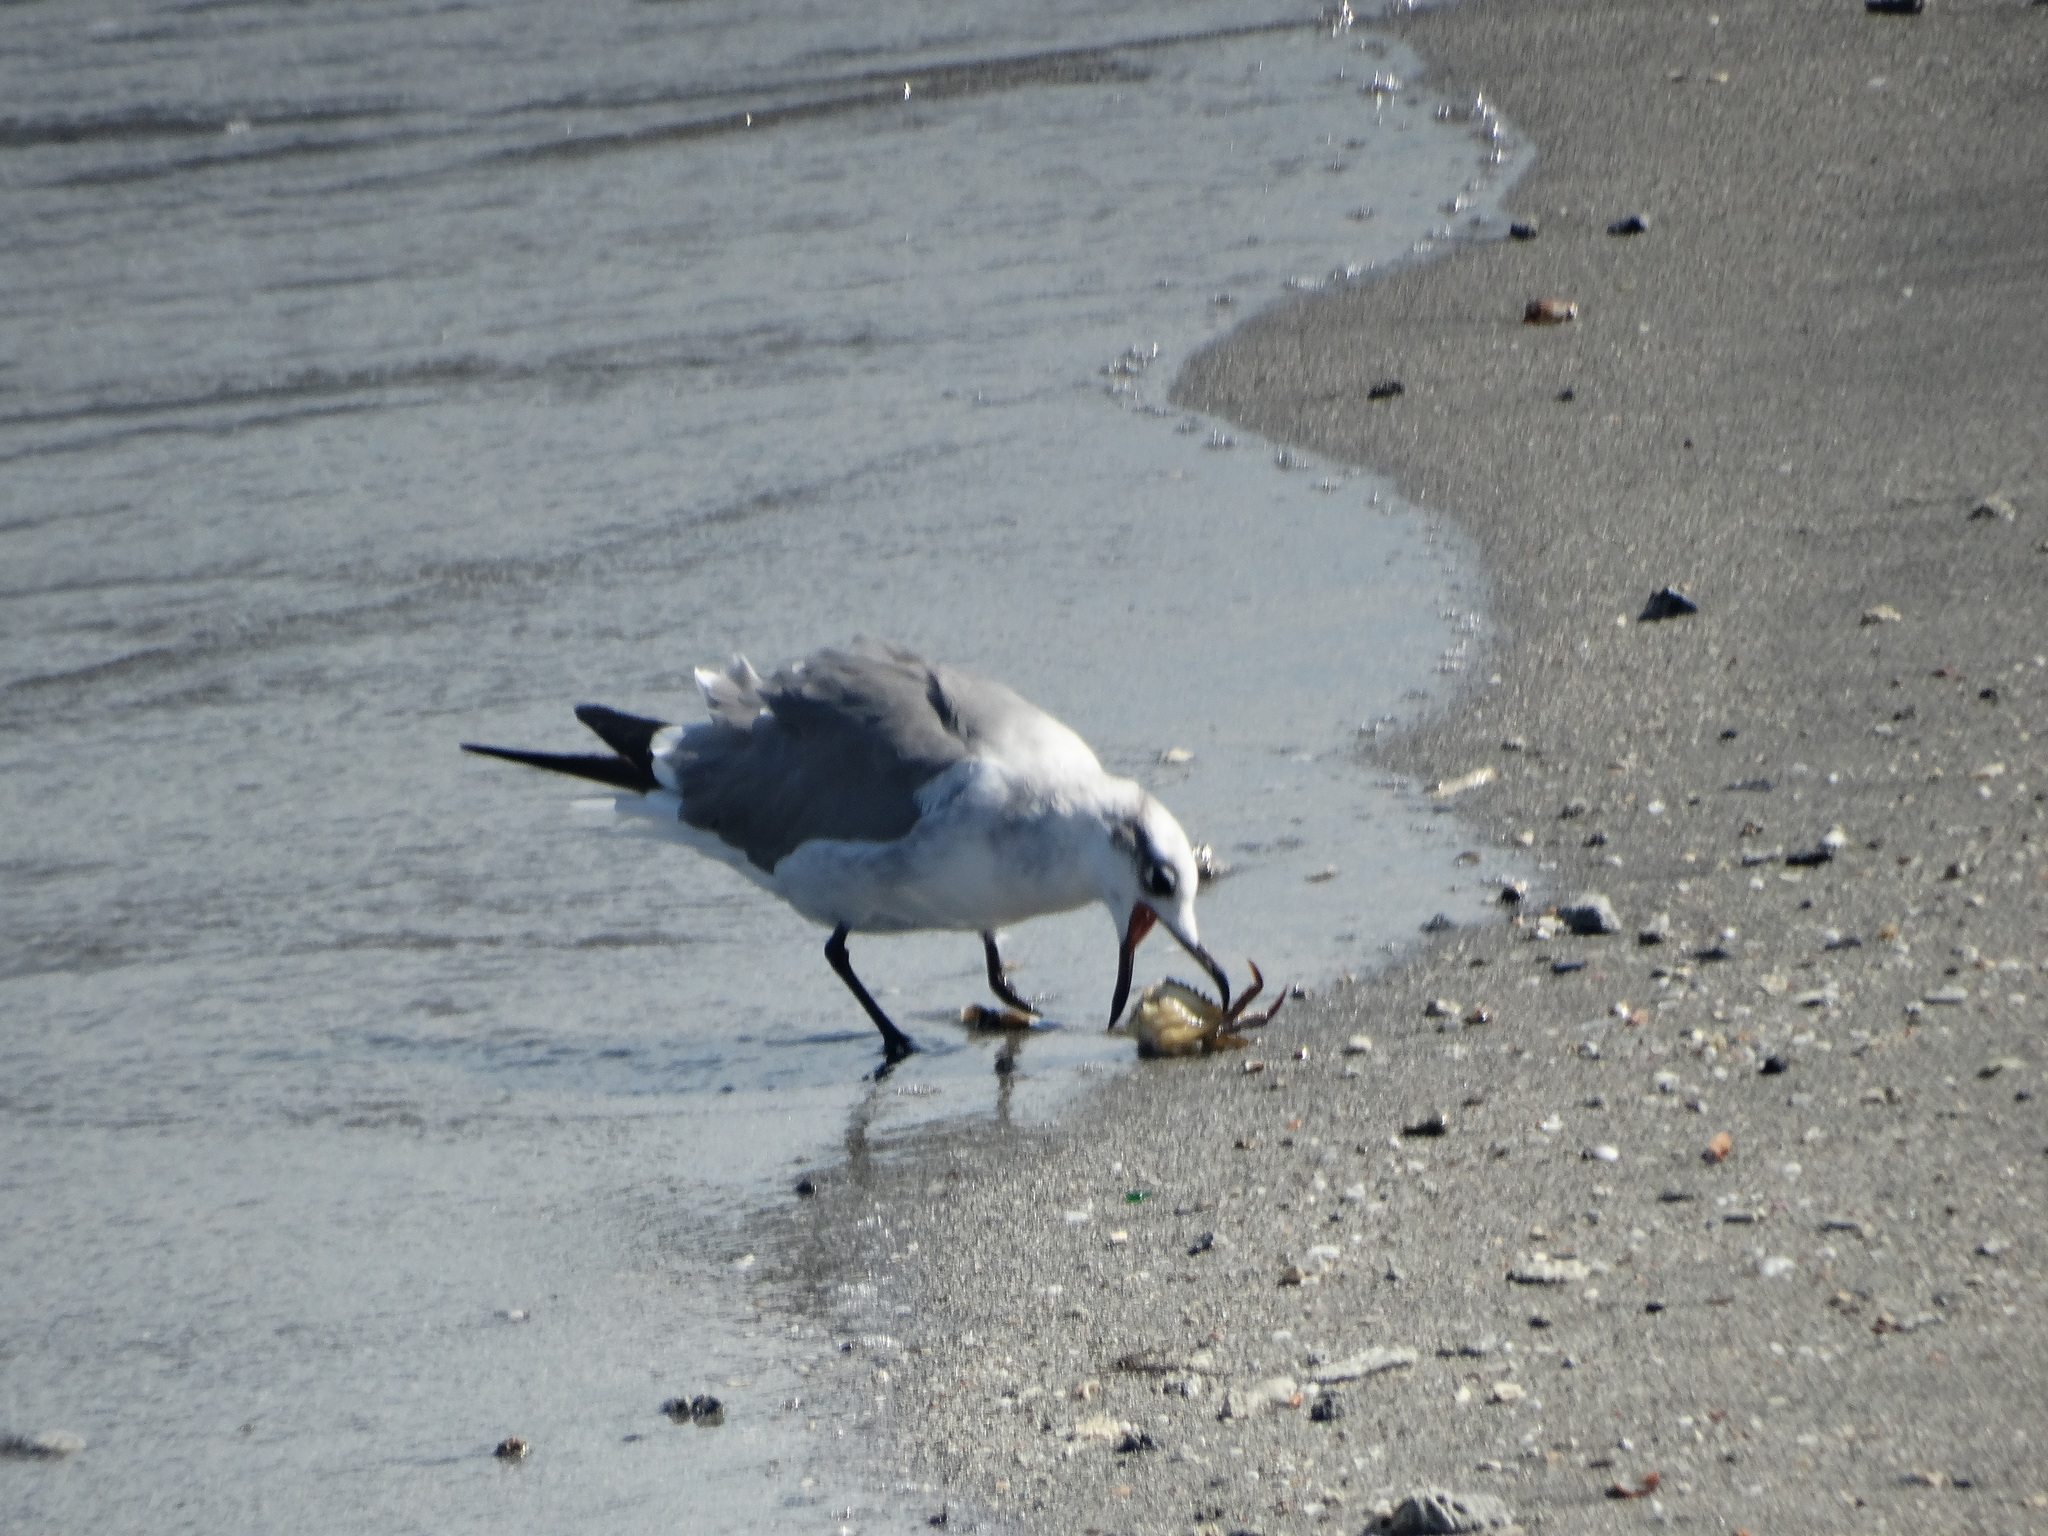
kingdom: Animalia
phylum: Chordata
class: Aves
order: Charadriiformes
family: Laridae
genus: Leucophaeus
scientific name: Leucophaeus atricilla
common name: Laughing gull
